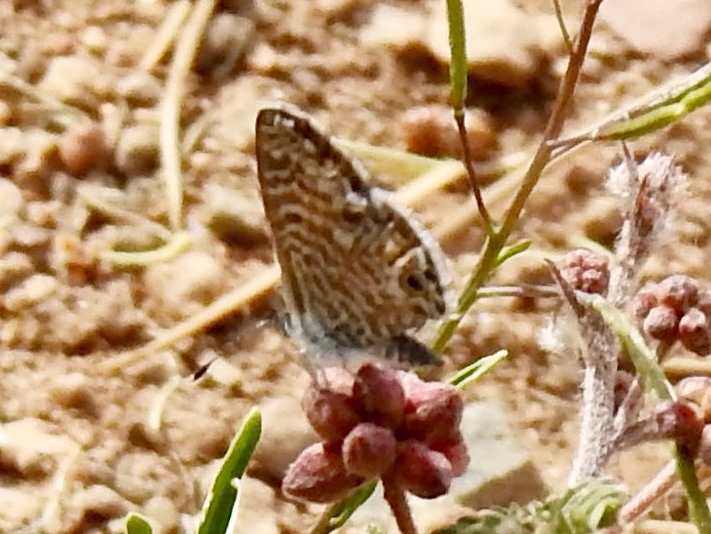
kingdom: Animalia
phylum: Arthropoda
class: Insecta
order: Lepidoptera
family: Lycaenidae
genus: Leptotes
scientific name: Leptotes marina
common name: Marine blue
